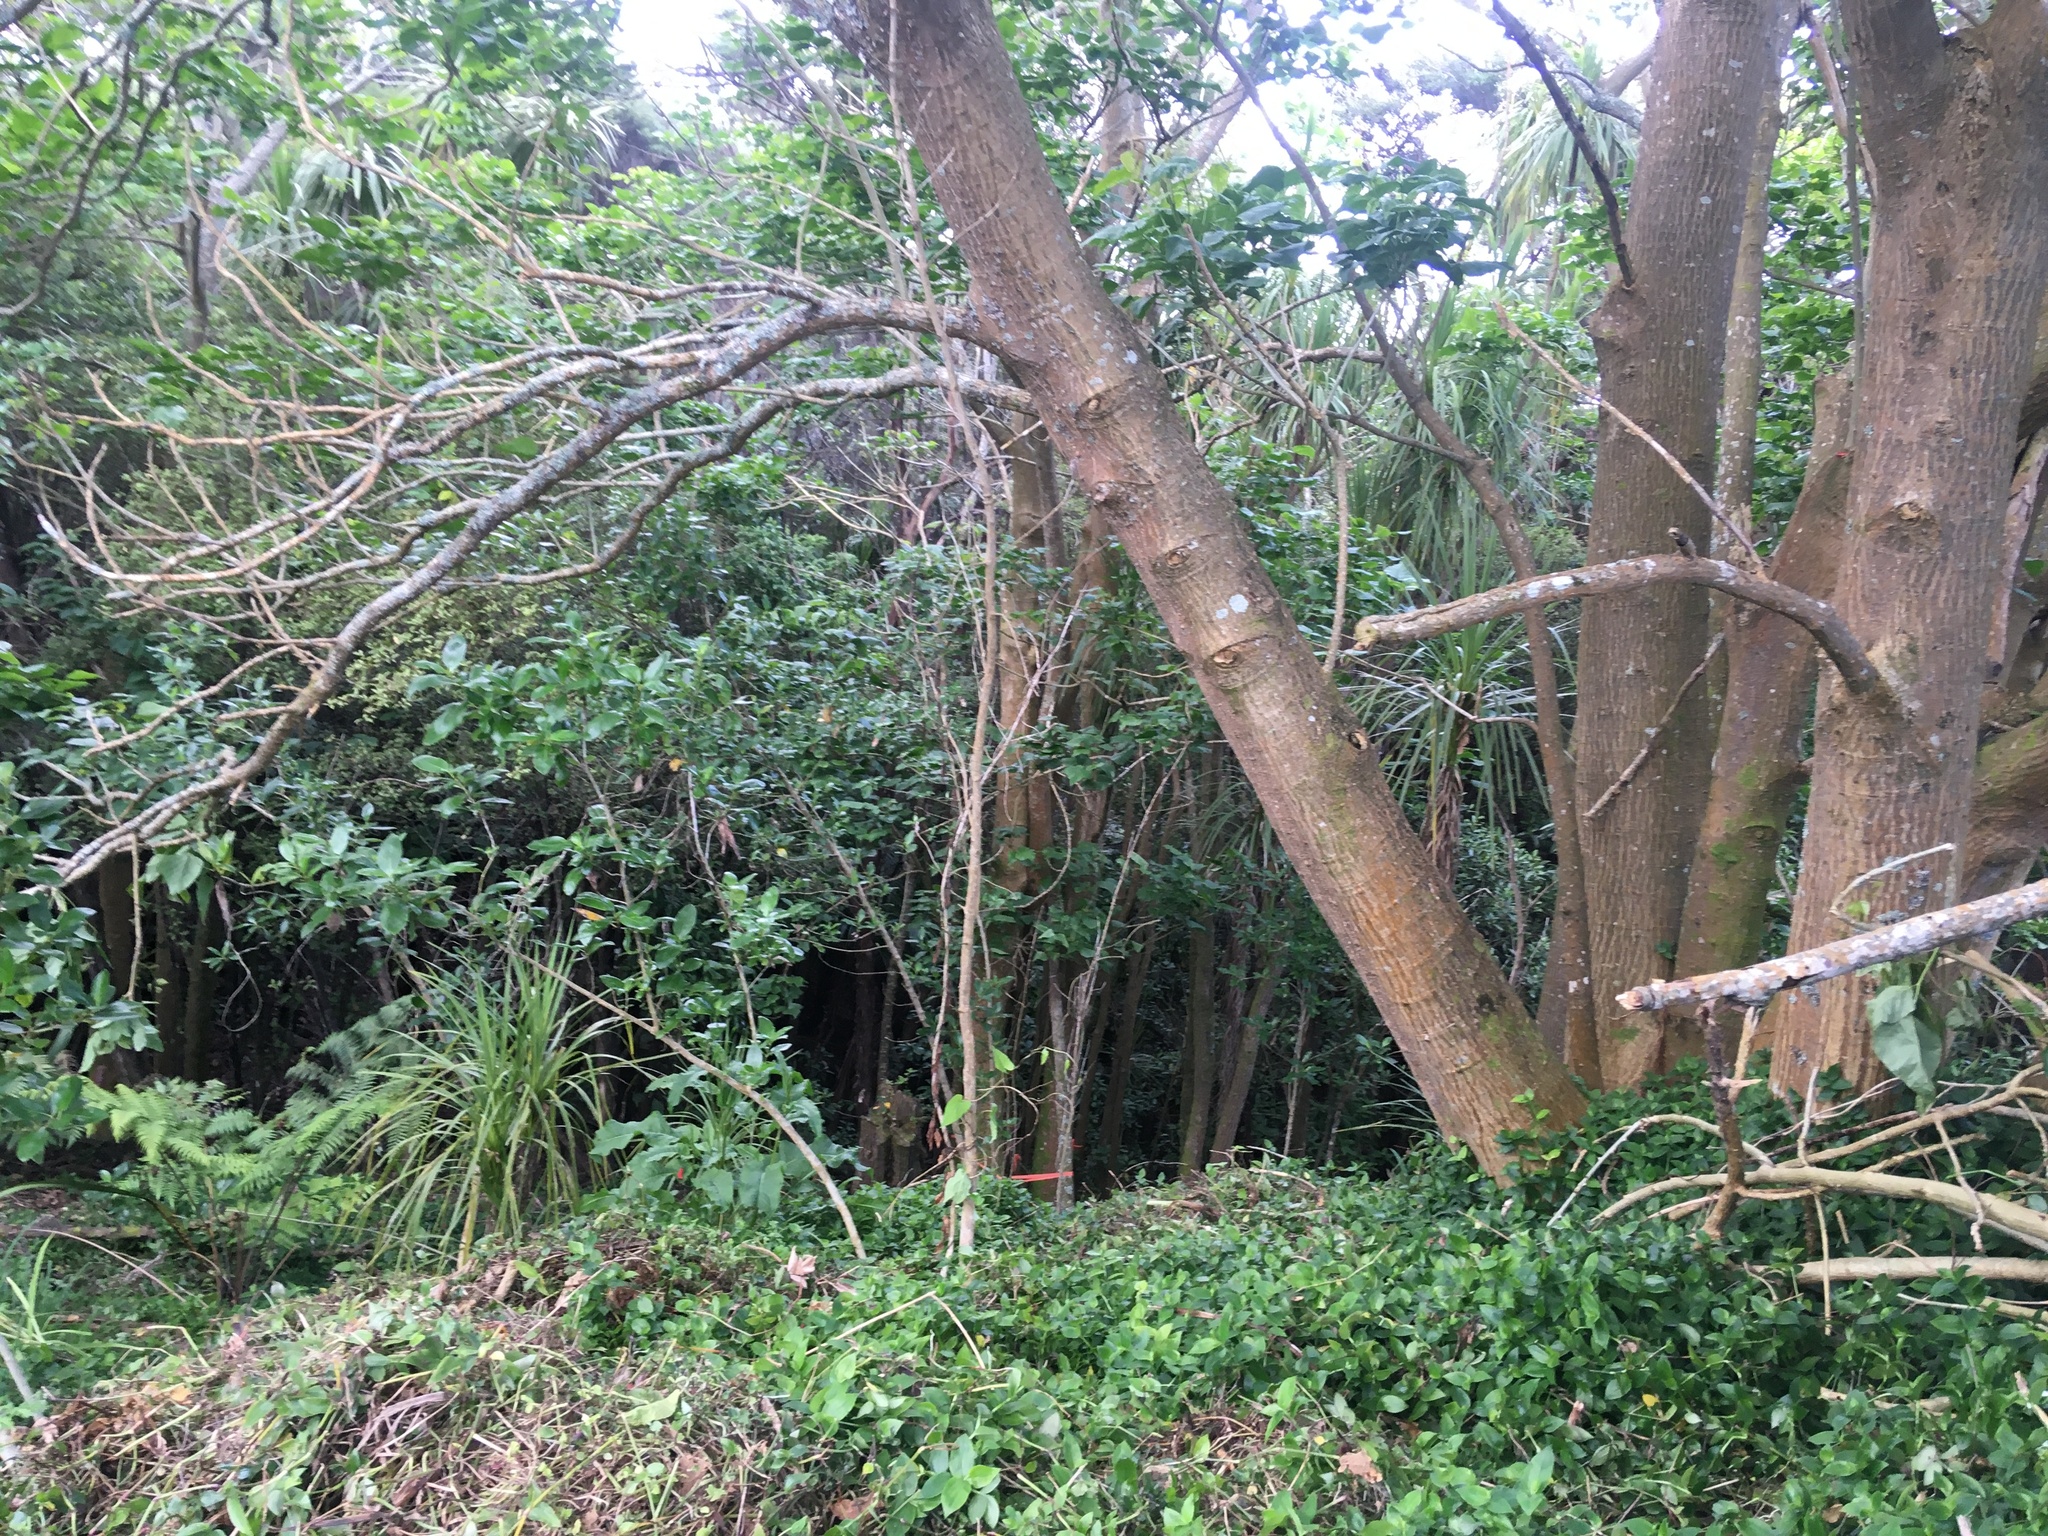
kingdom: Plantae
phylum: Tracheophyta
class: Liliopsida
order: Asparagales
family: Asparagaceae
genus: Cordyline
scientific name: Cordyline australis
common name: Cabbage-palm
